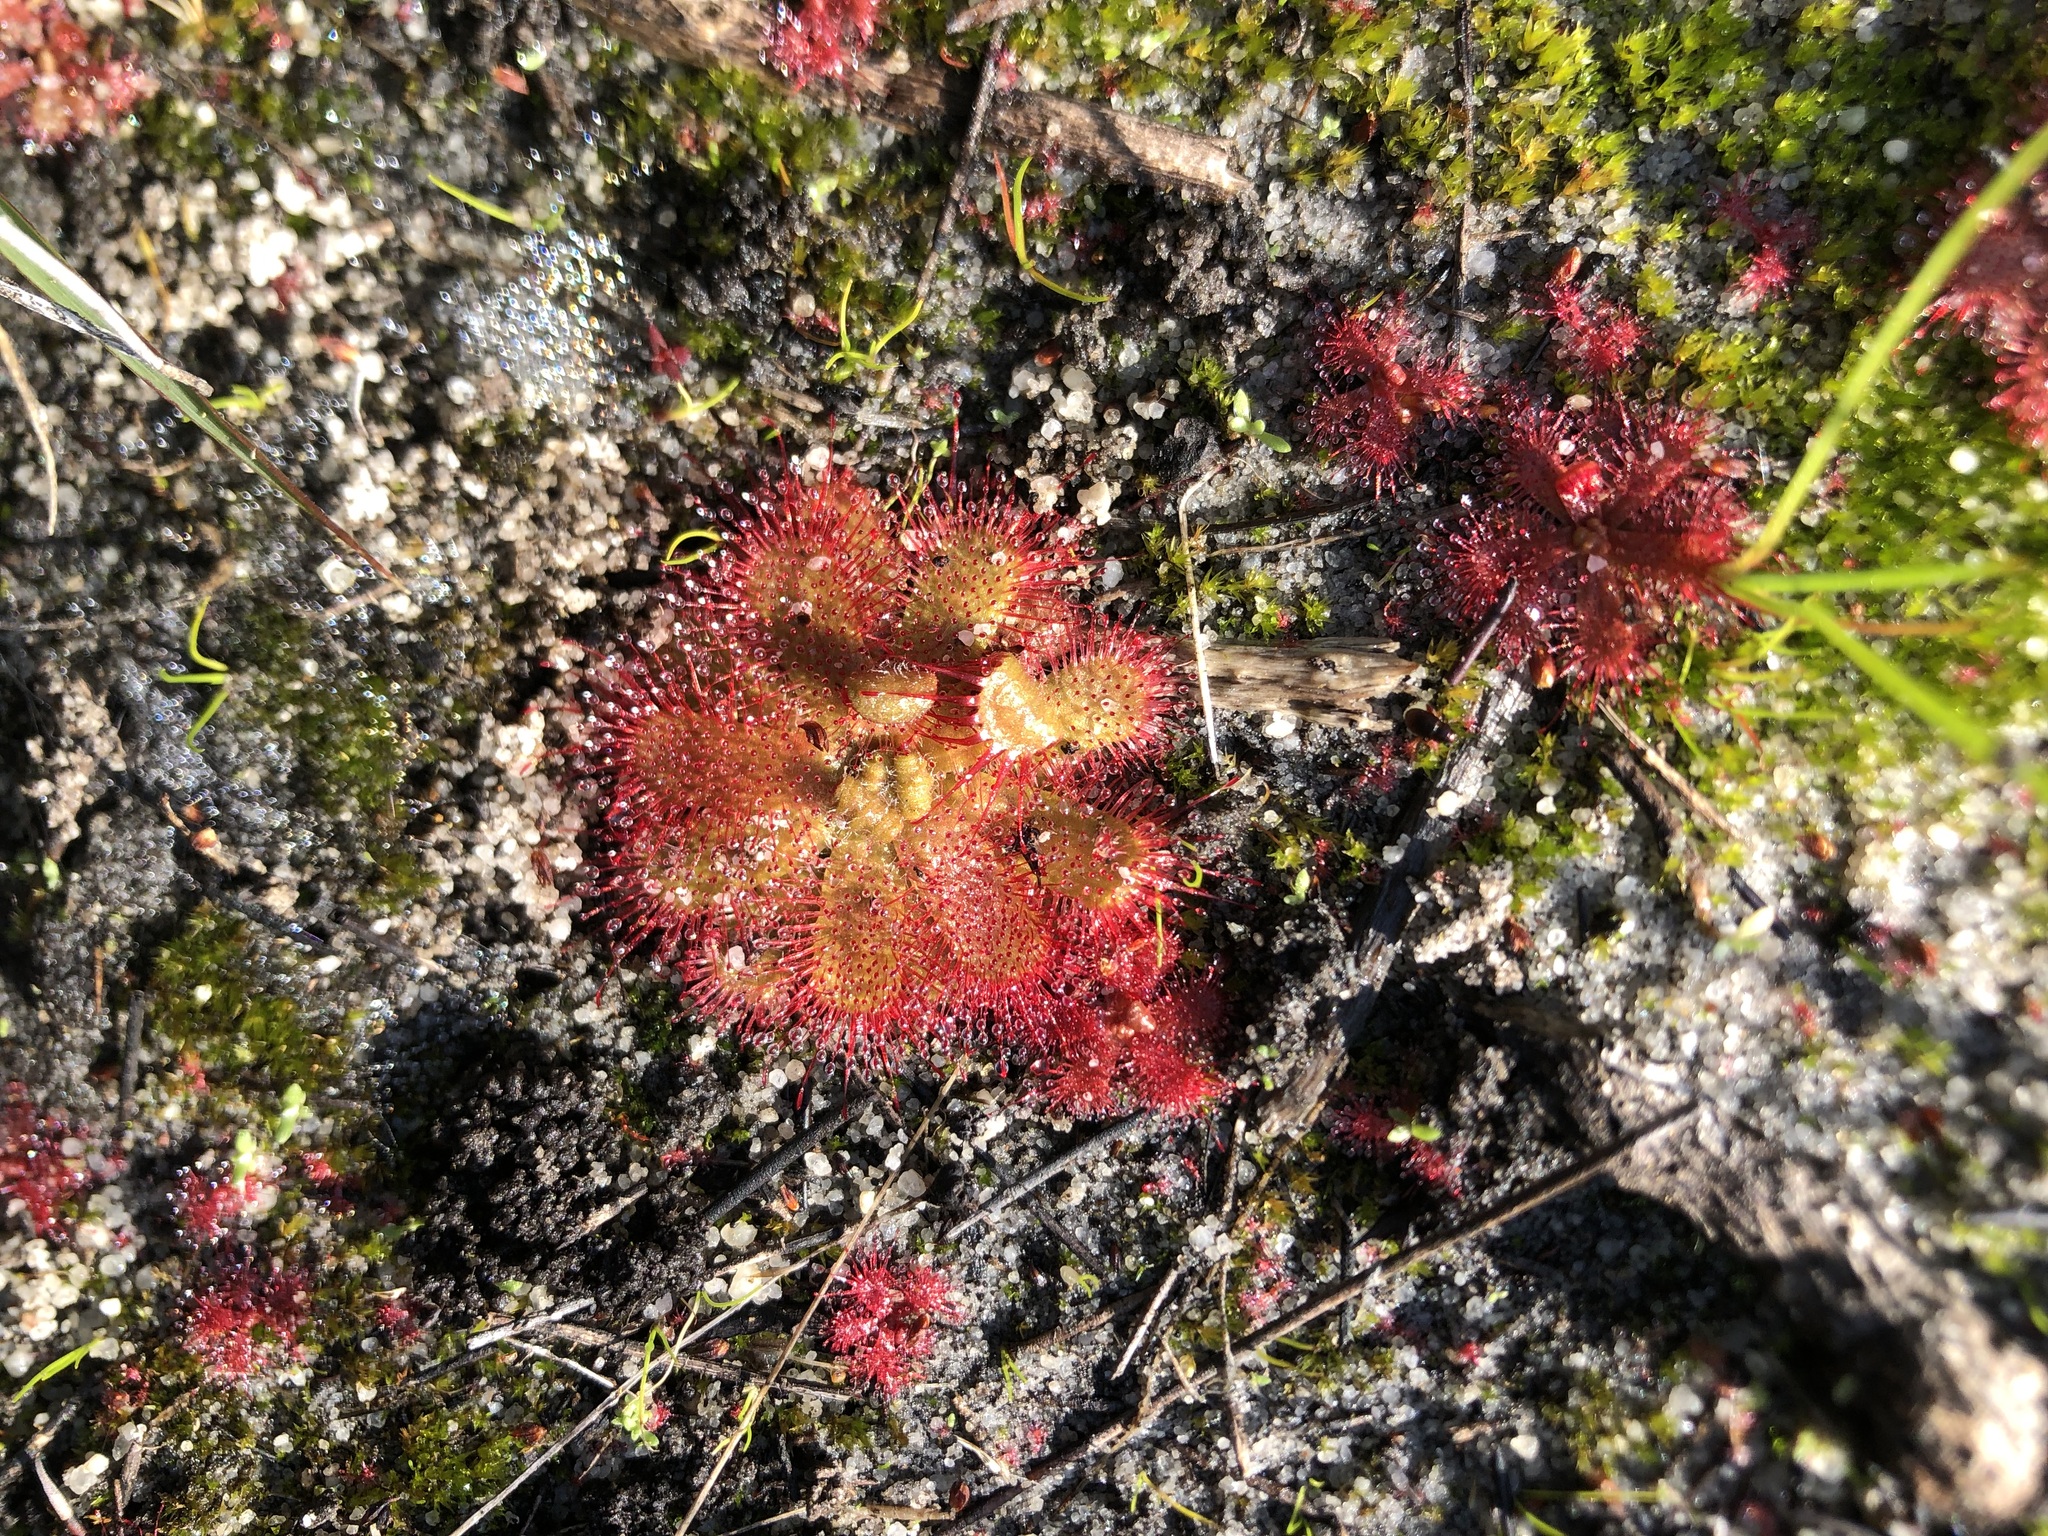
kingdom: Plantae
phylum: Tracheophyta
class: Magnoliopsida
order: Caryophyllales
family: Droseraceae
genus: Drosera
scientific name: Drosera trinervia
